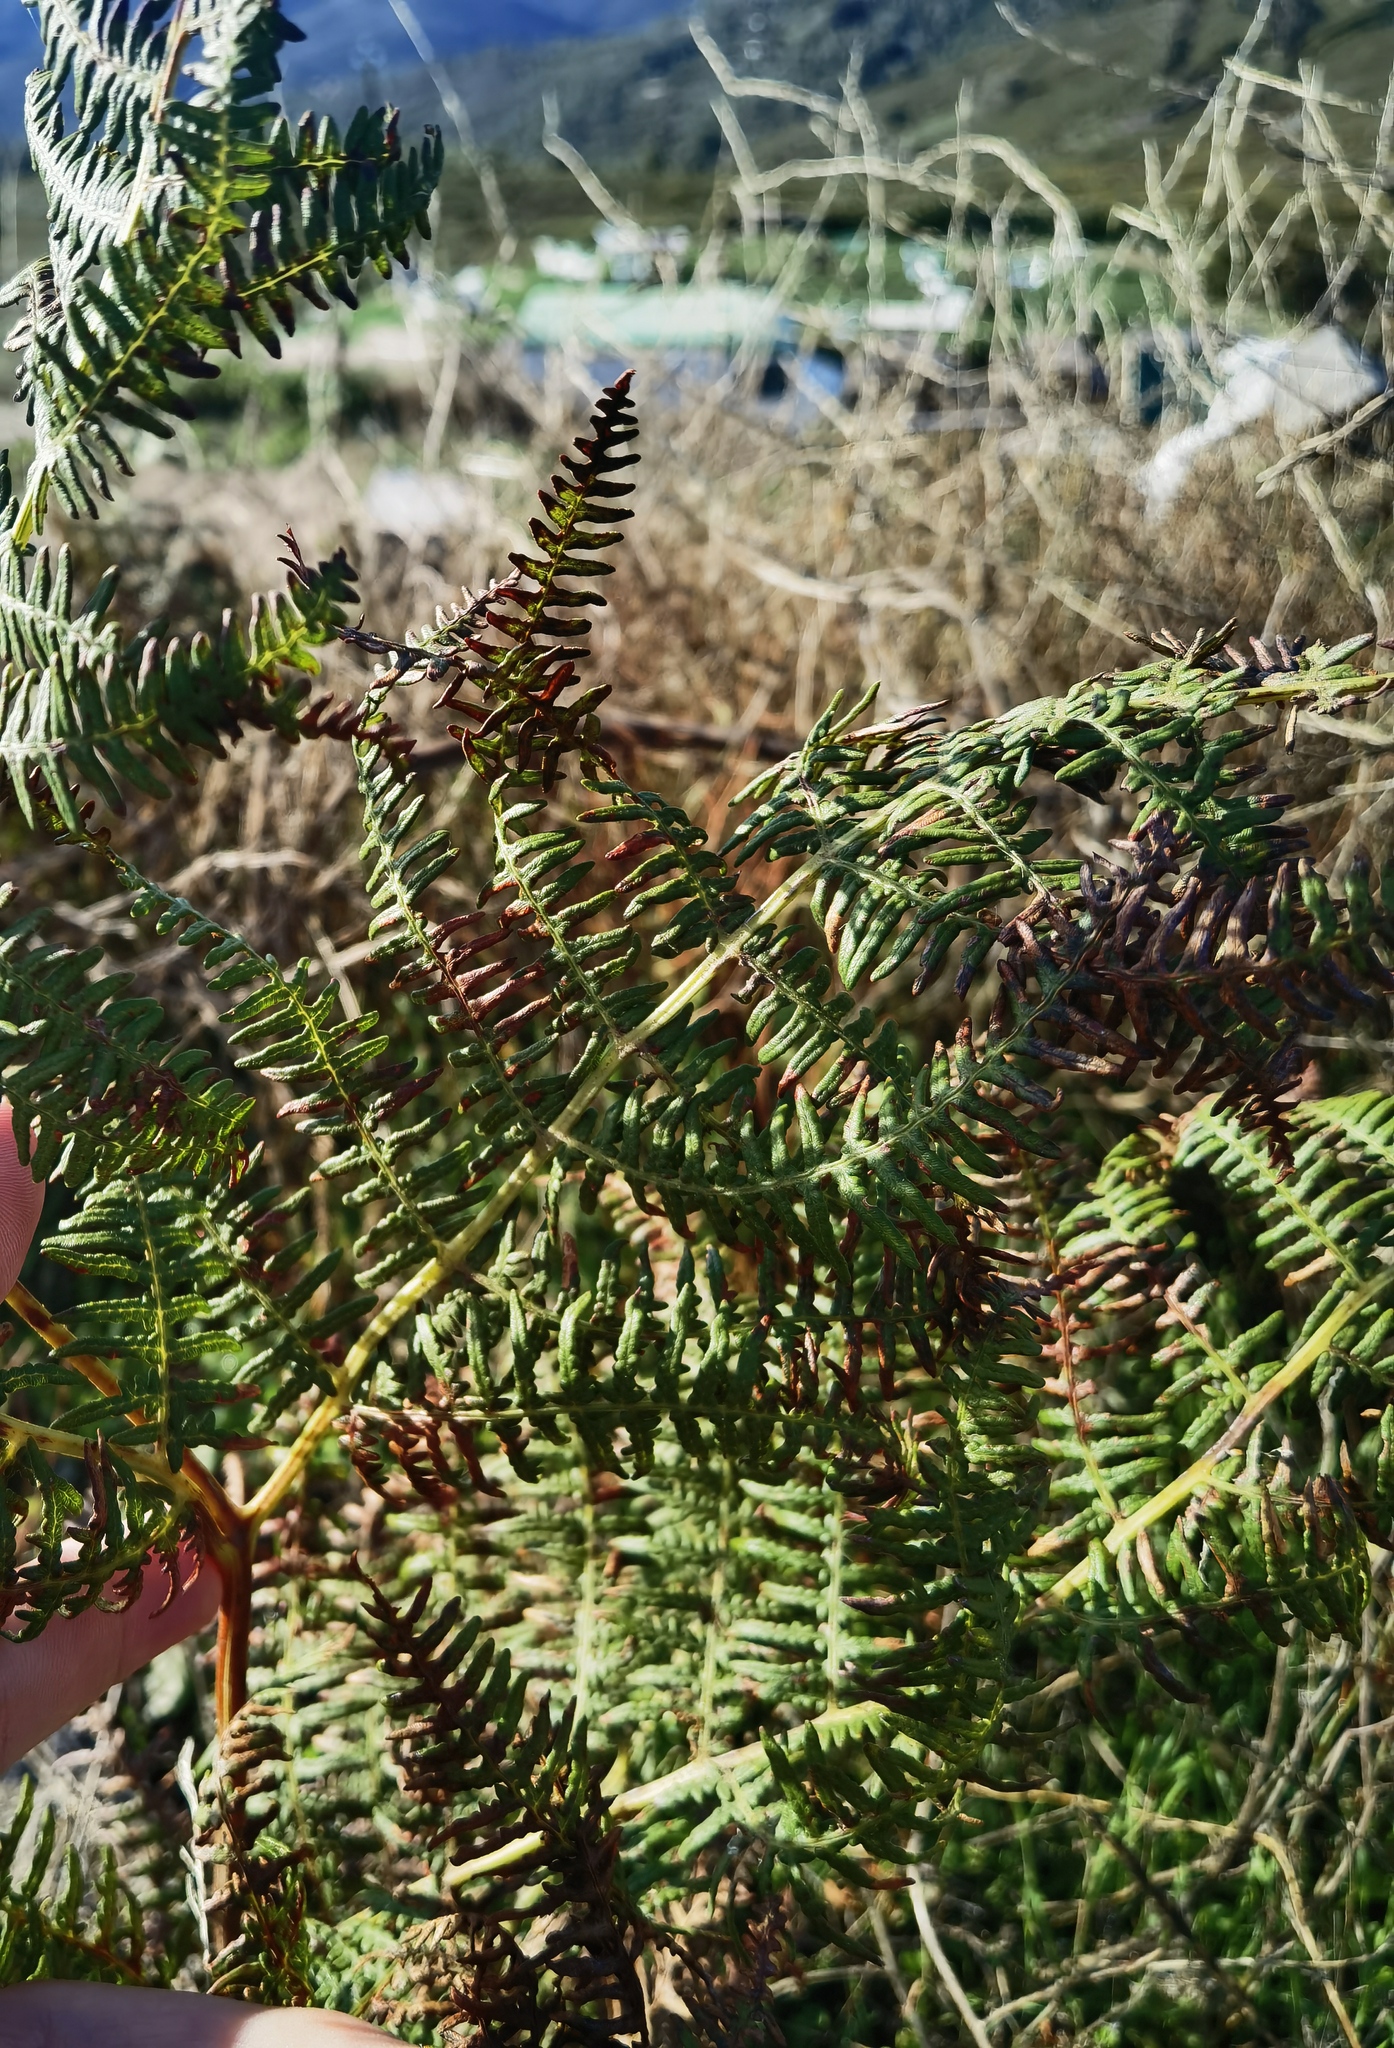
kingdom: Plantae
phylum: Tracheophyta
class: Polypodiopsida
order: Polypodiales
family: Dennstaedtiaceae
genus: Pteridium
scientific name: Pteridium aquilinum
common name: Bracken
